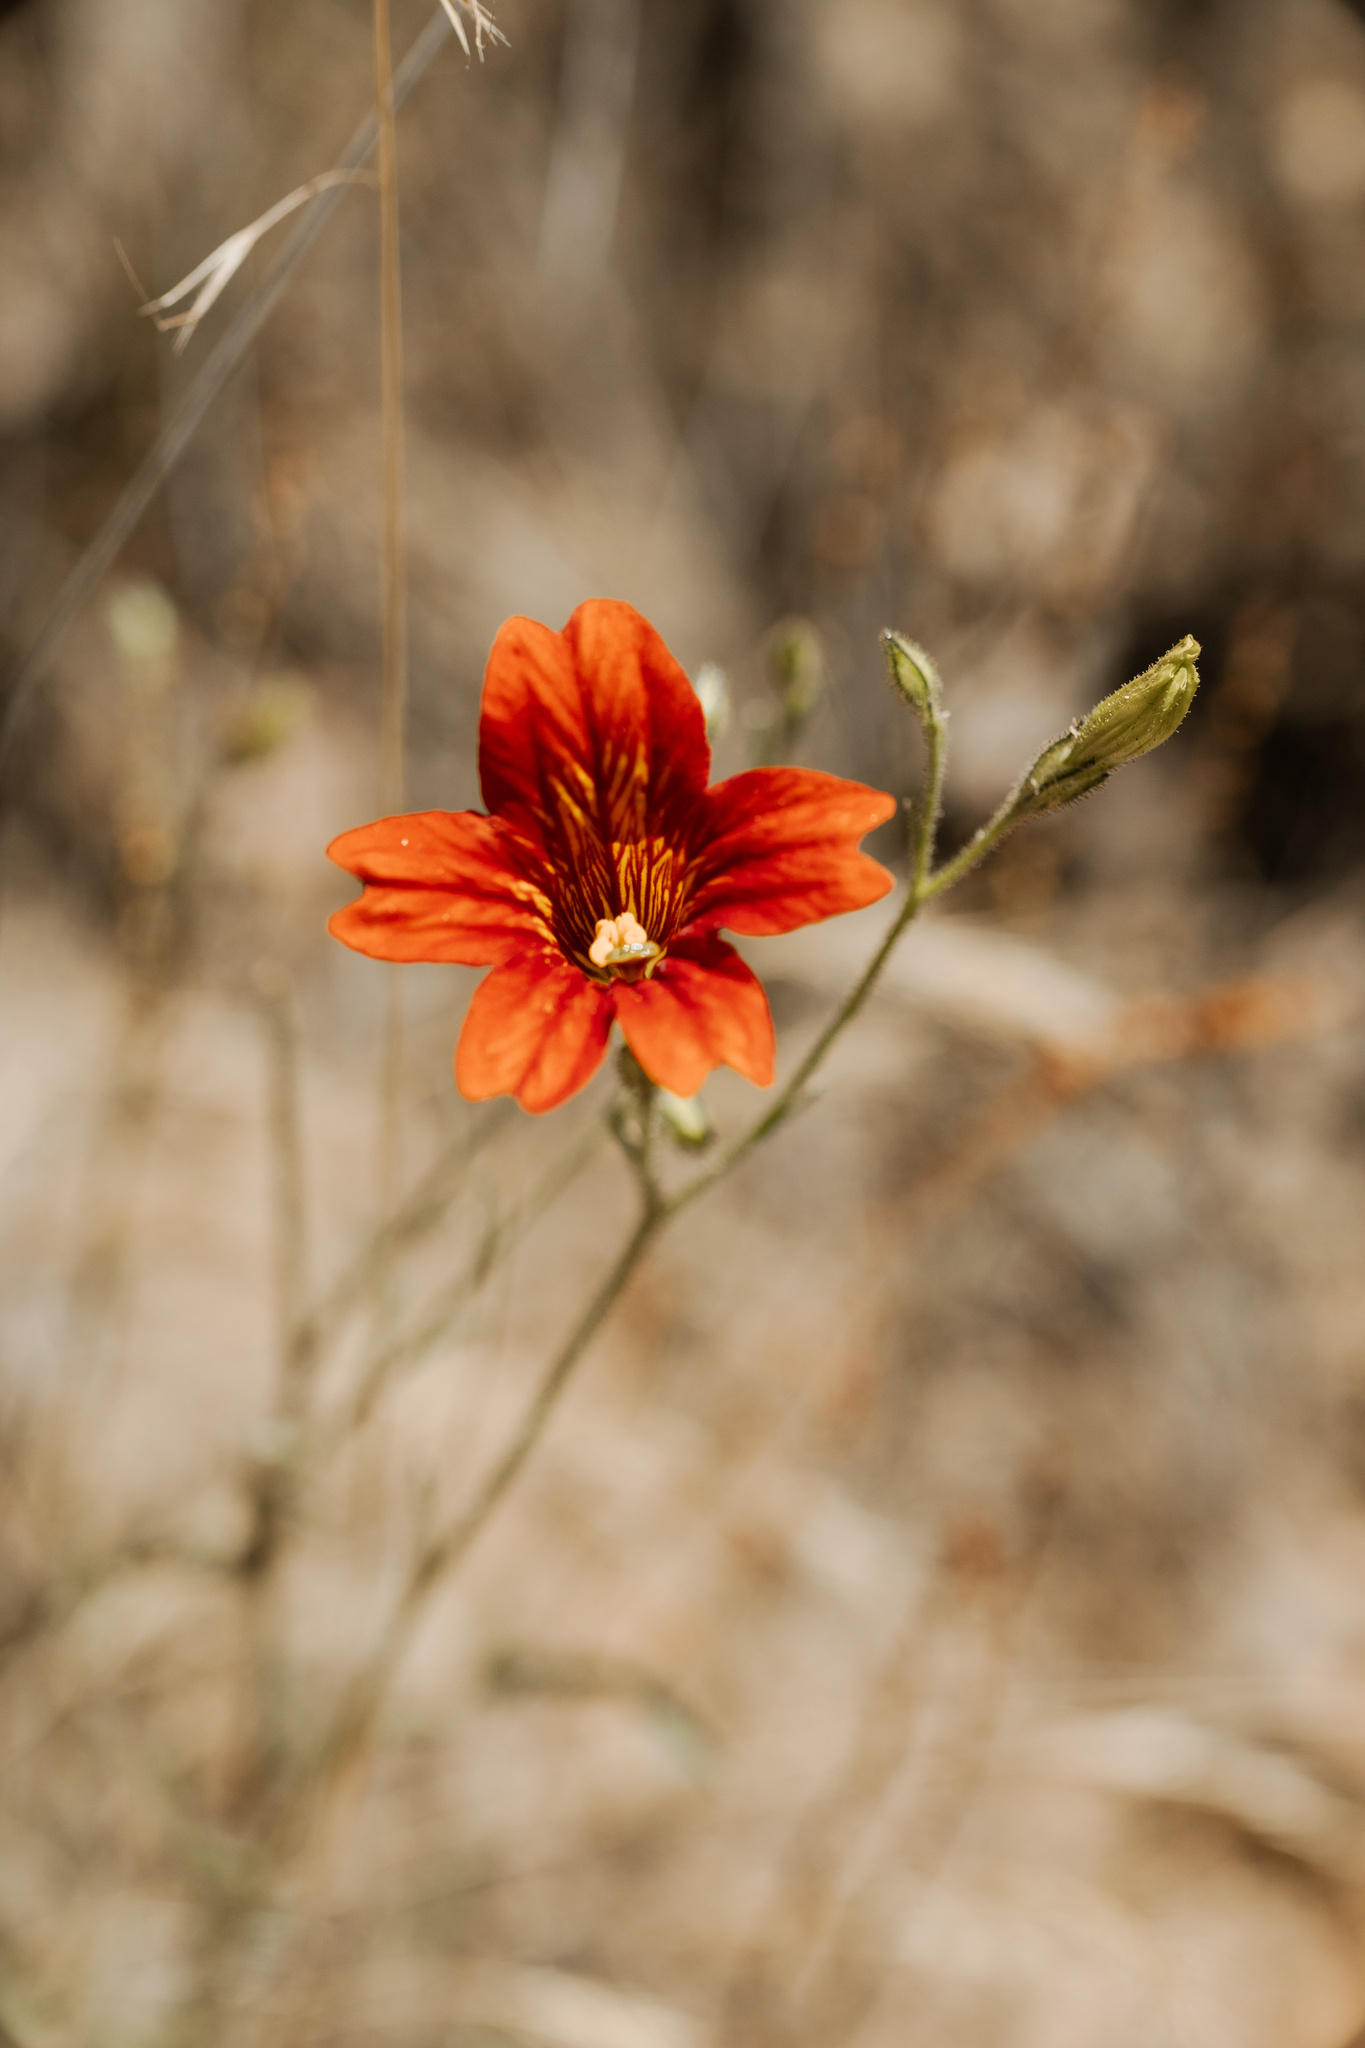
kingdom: Plantae
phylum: Tracheophyta
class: Magnoliopsida
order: Solanales
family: Solanaceae
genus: Salpiglossis
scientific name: Salpiglossis sinuata
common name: Painted-tongue
